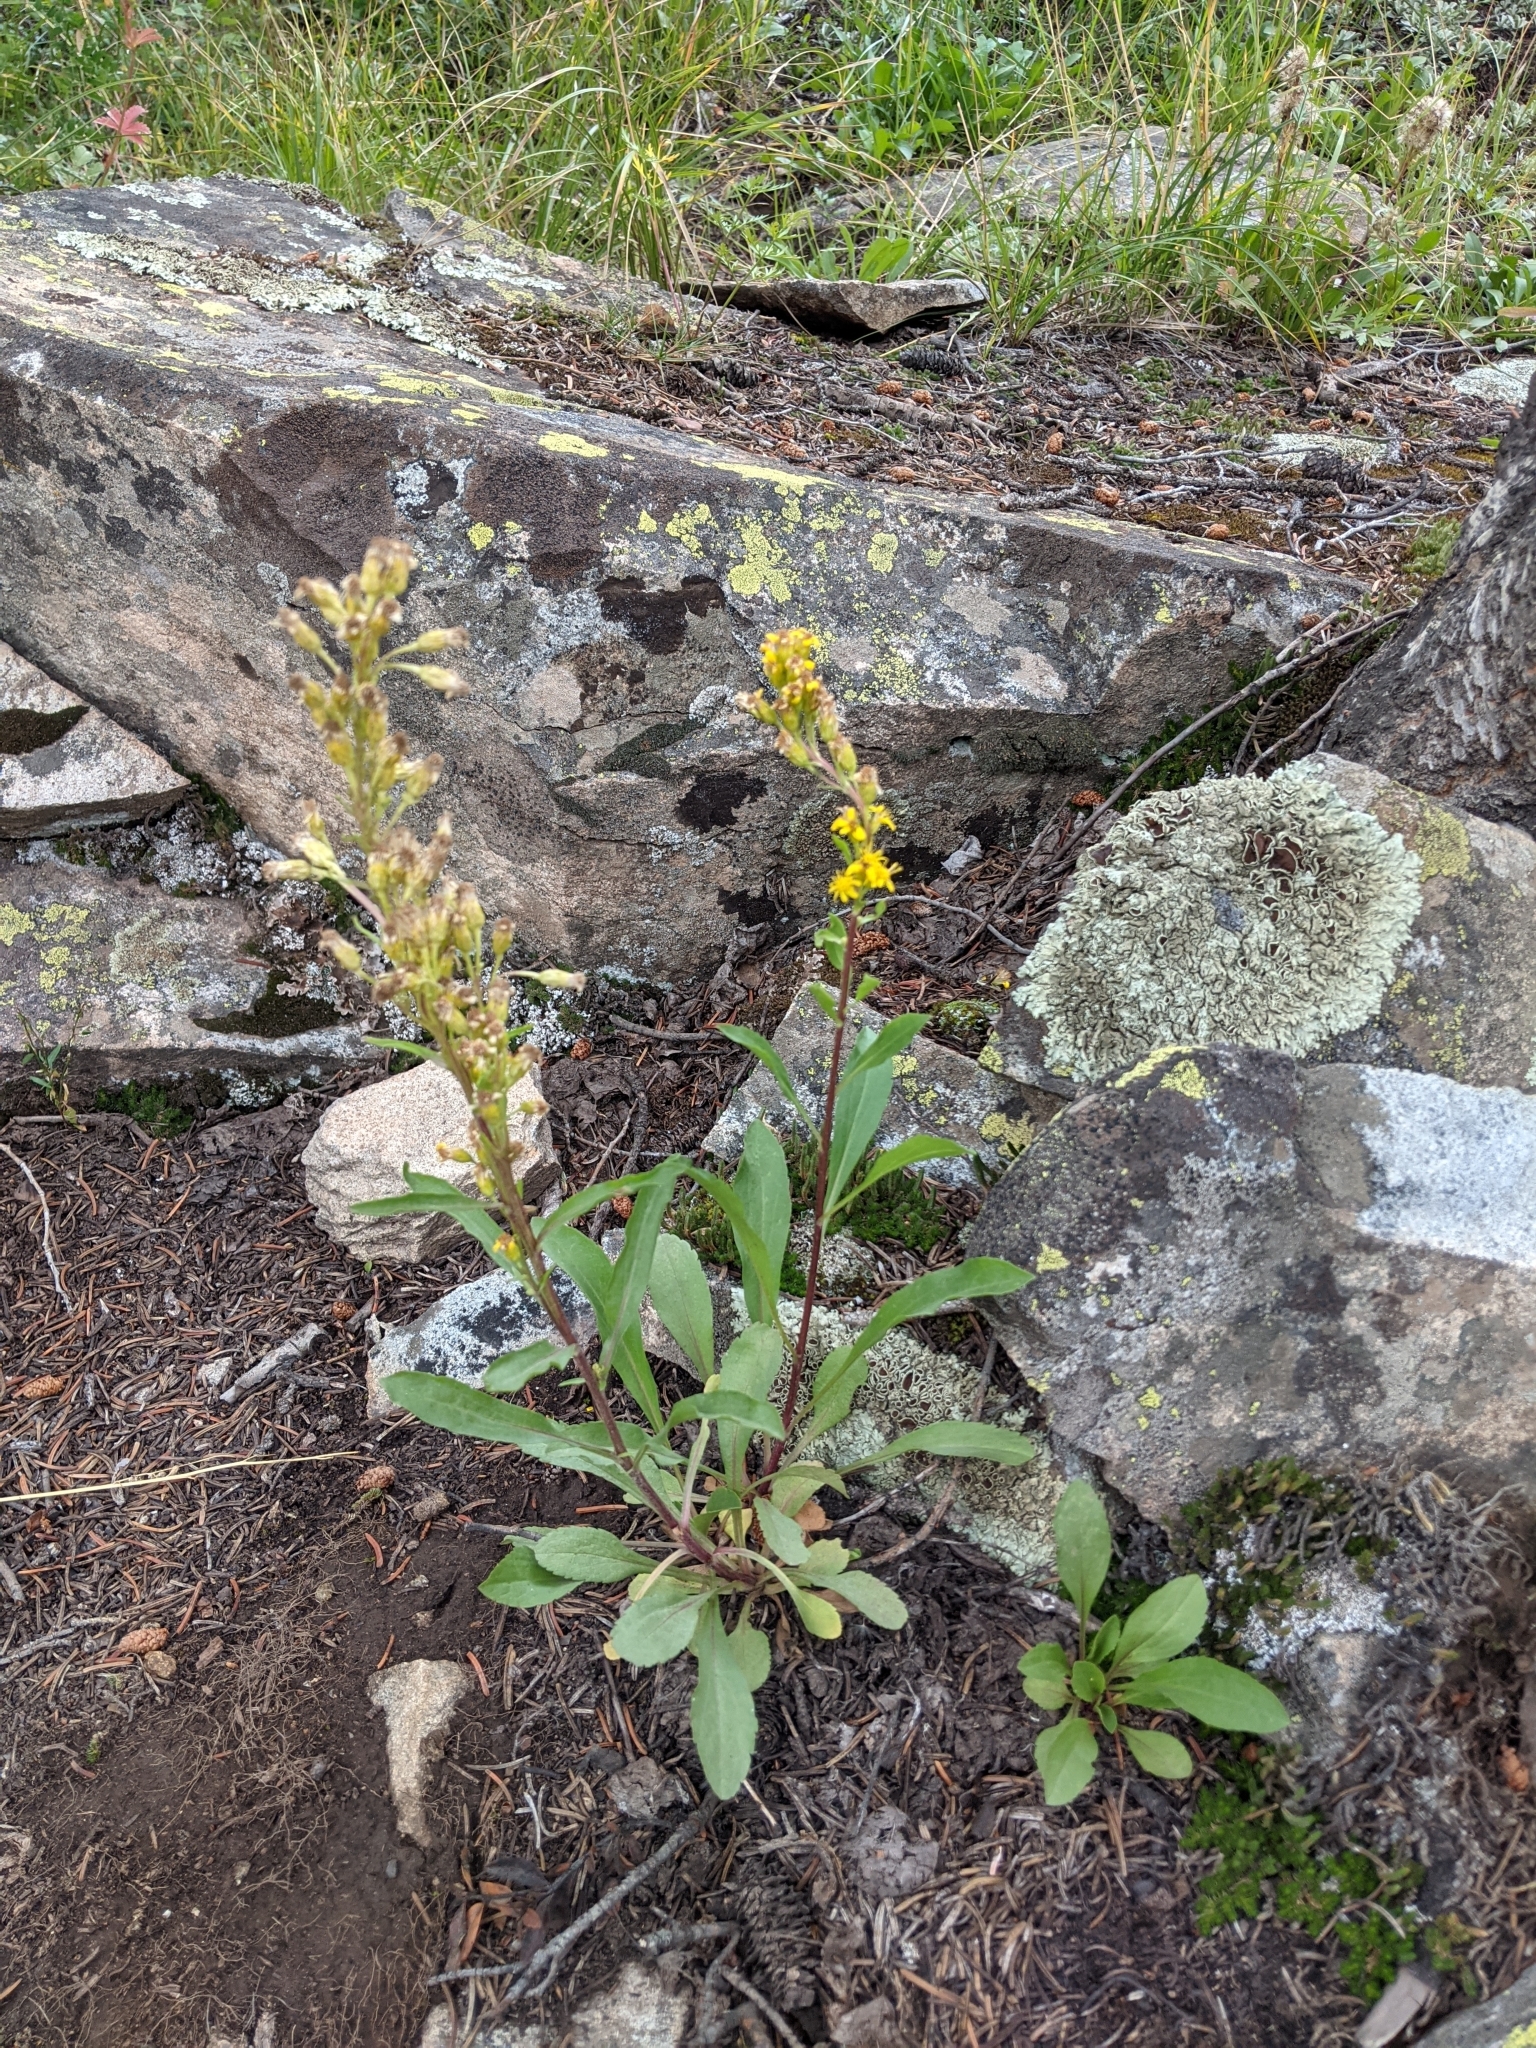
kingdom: Plantae
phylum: Tracheophyta
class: Magnoliopsida
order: Asterales
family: Asteraceae
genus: Solidago
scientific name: Solidago simplex
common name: Sticky goldenrod
